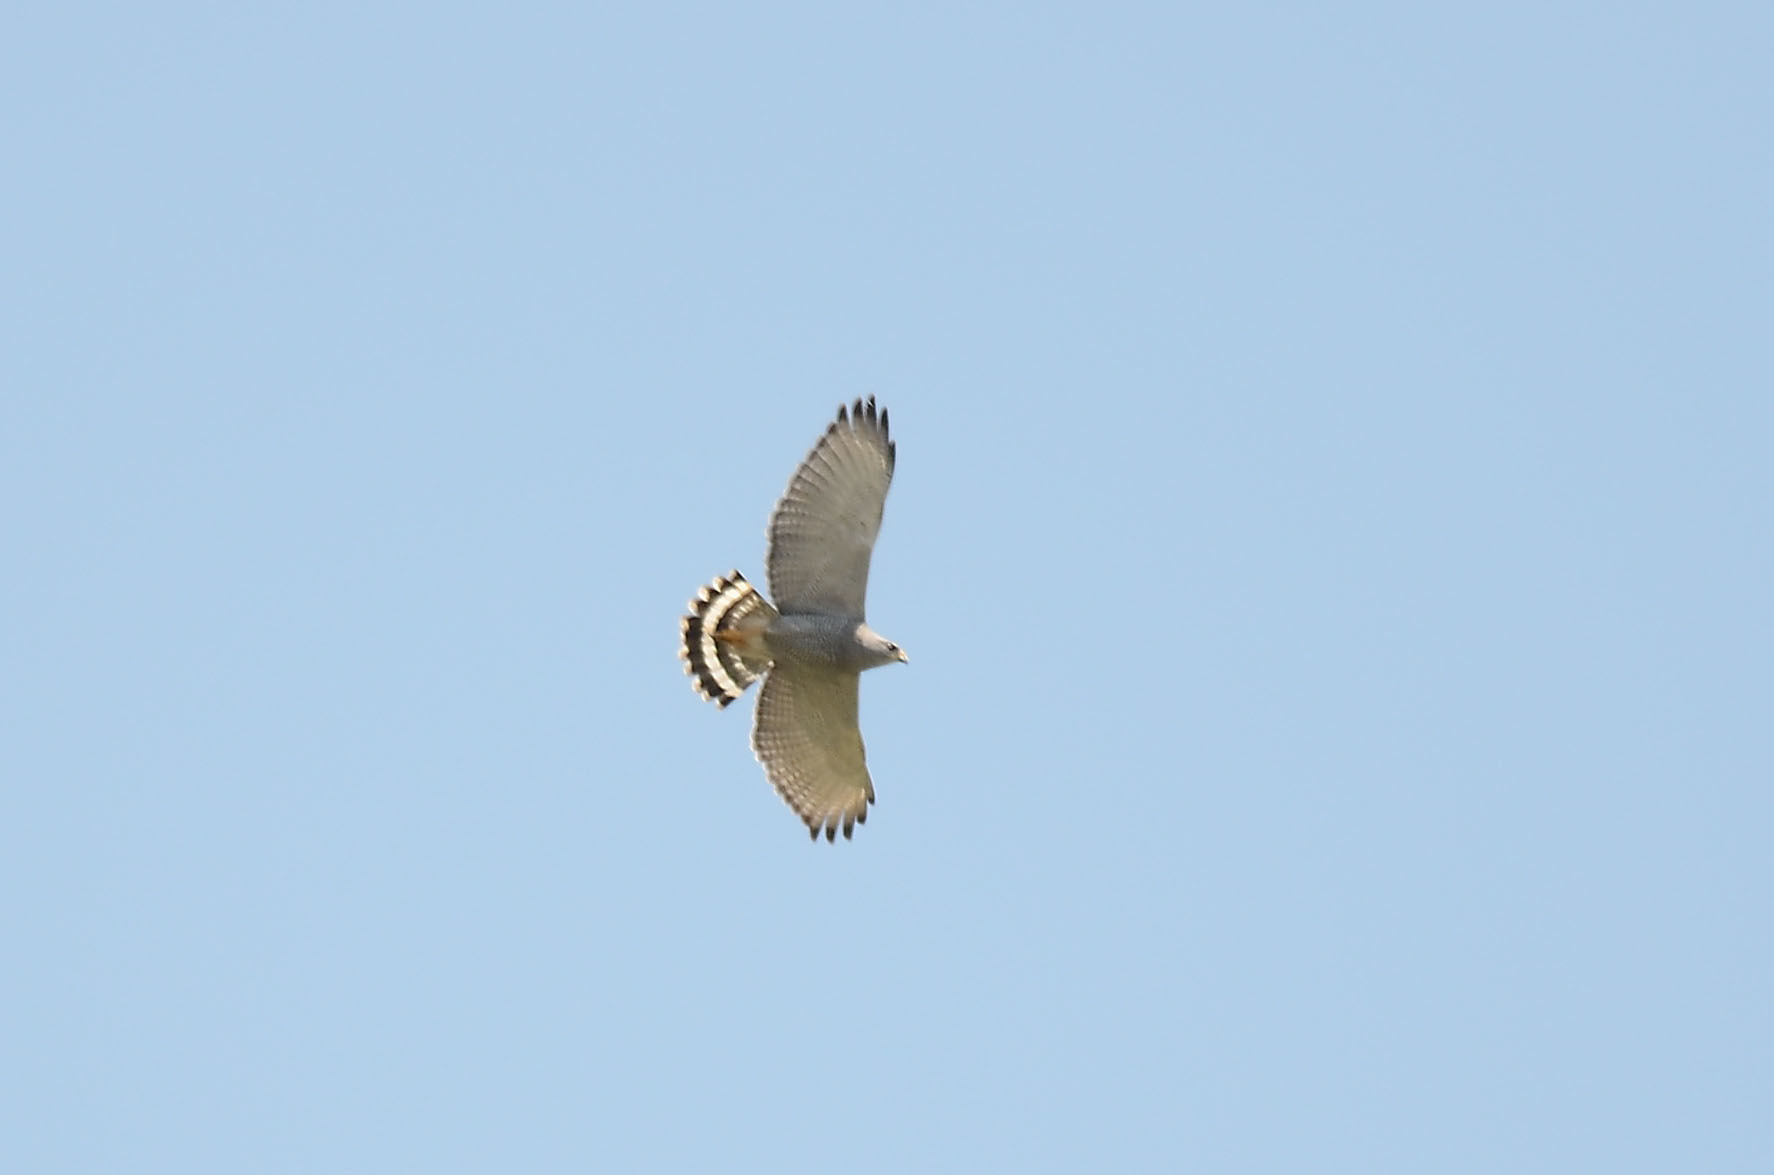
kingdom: Animalia
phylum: Chordata
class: Aves
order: Accipitriformes
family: Accipitridae
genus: Buteo
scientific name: Buteo nitidus
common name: Grey-lined hawk
